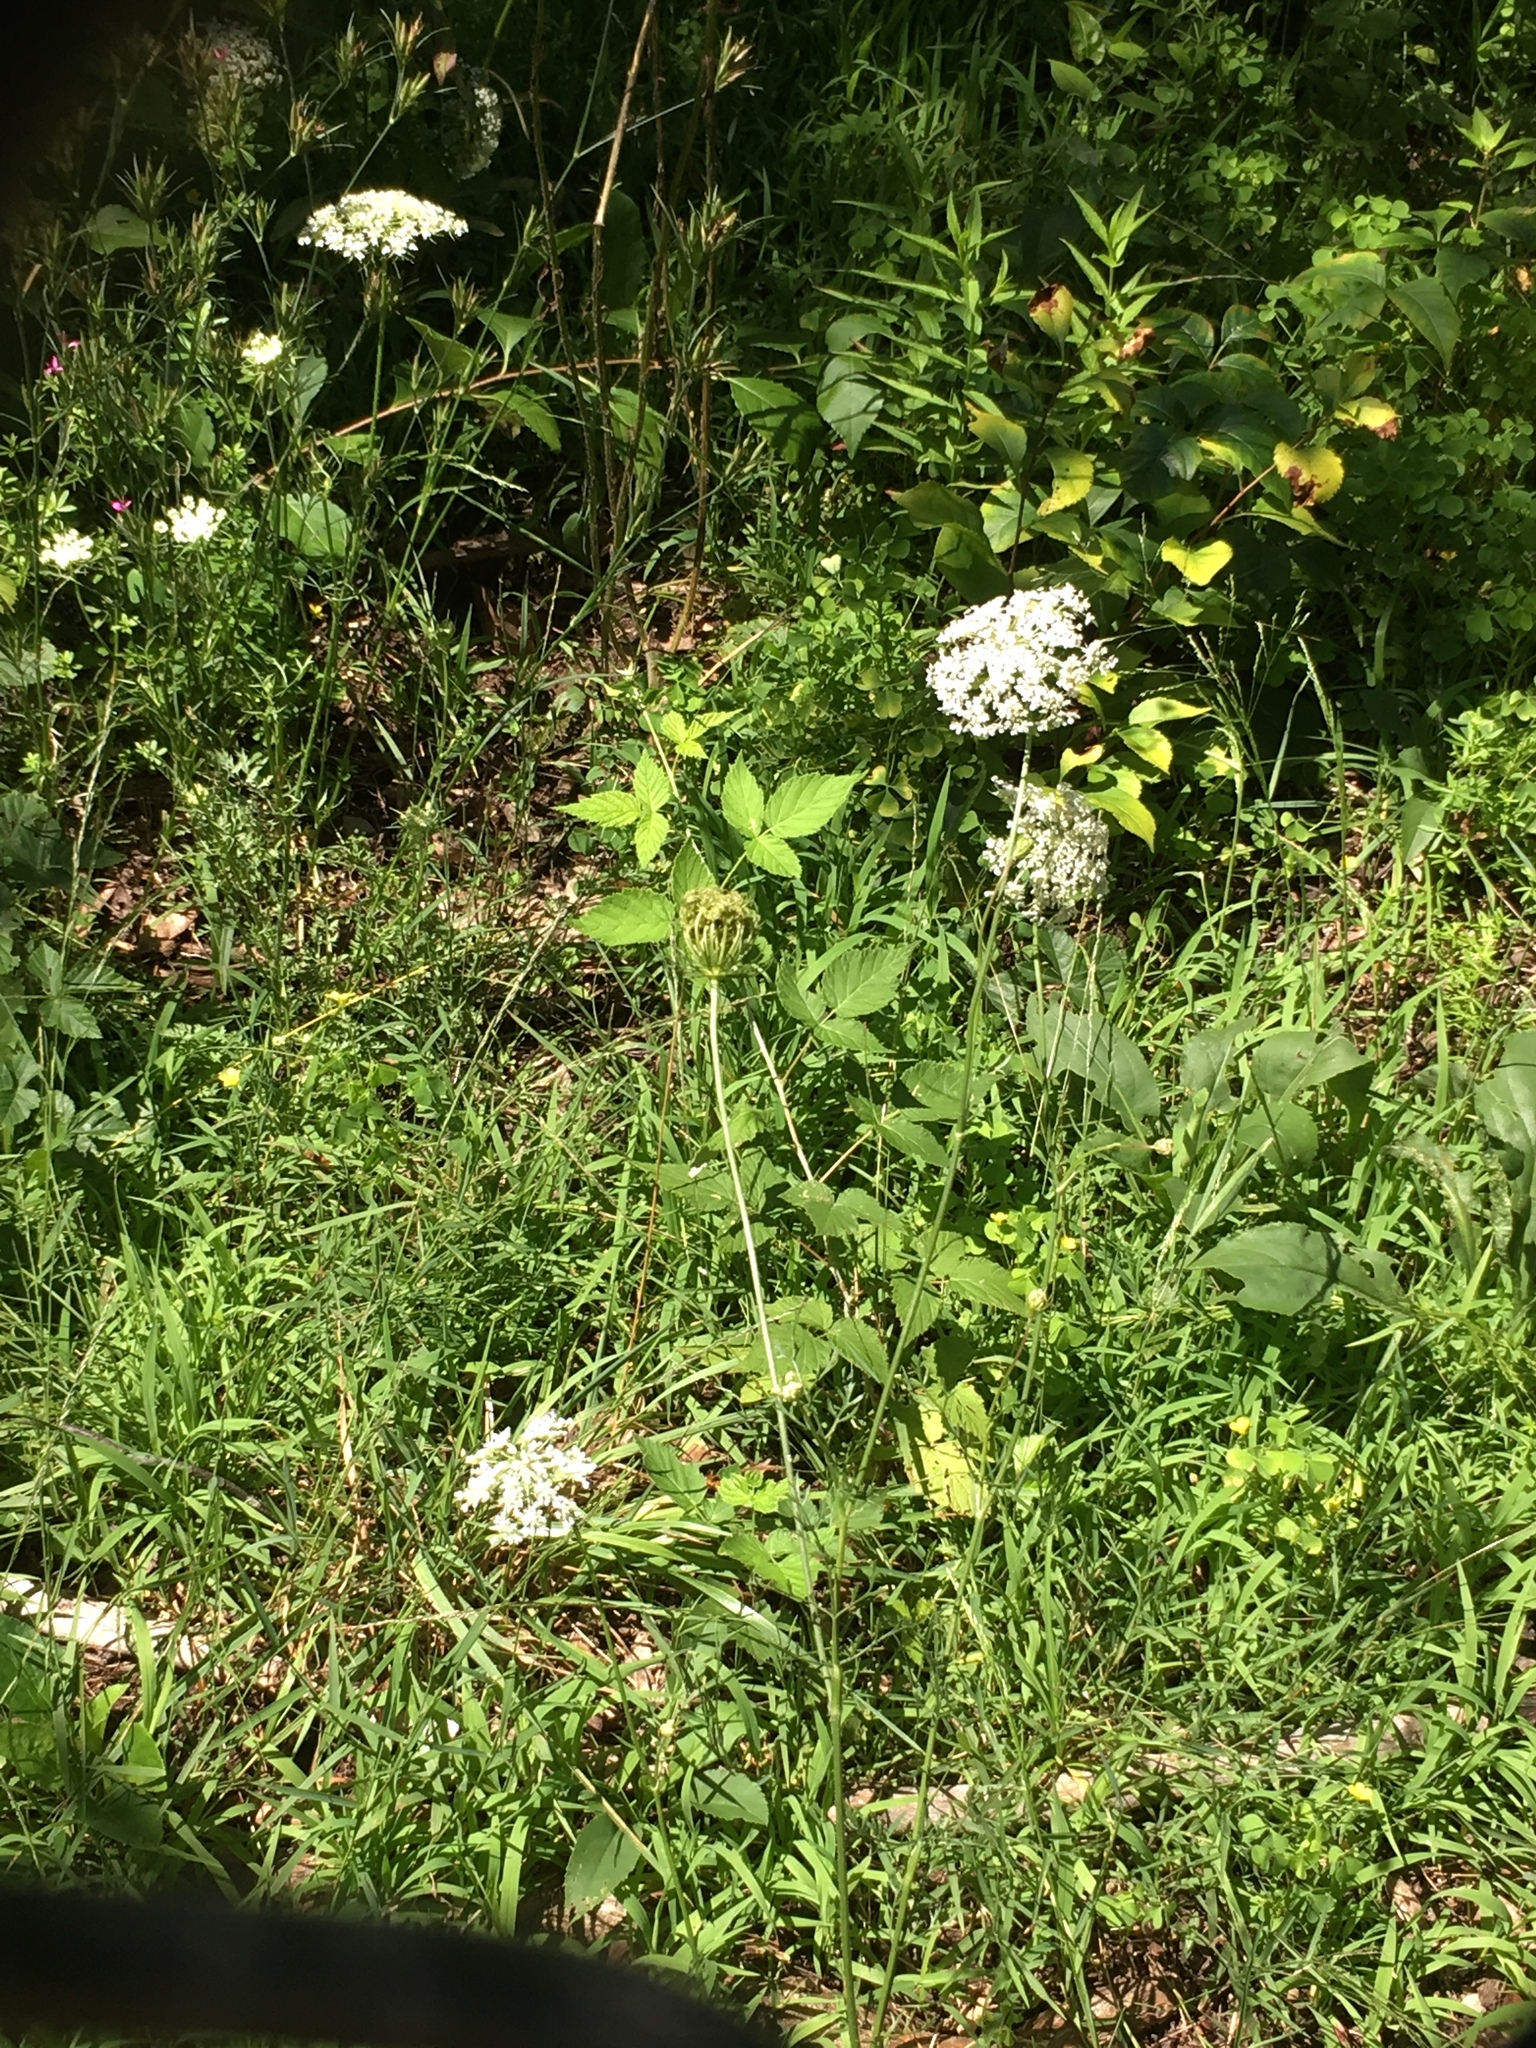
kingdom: Plantae
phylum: Tracheophyta
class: Magnoliopsida
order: Apiales
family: Apiaceae
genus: Daucus
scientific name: Daucus carota
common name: Wild carrot
